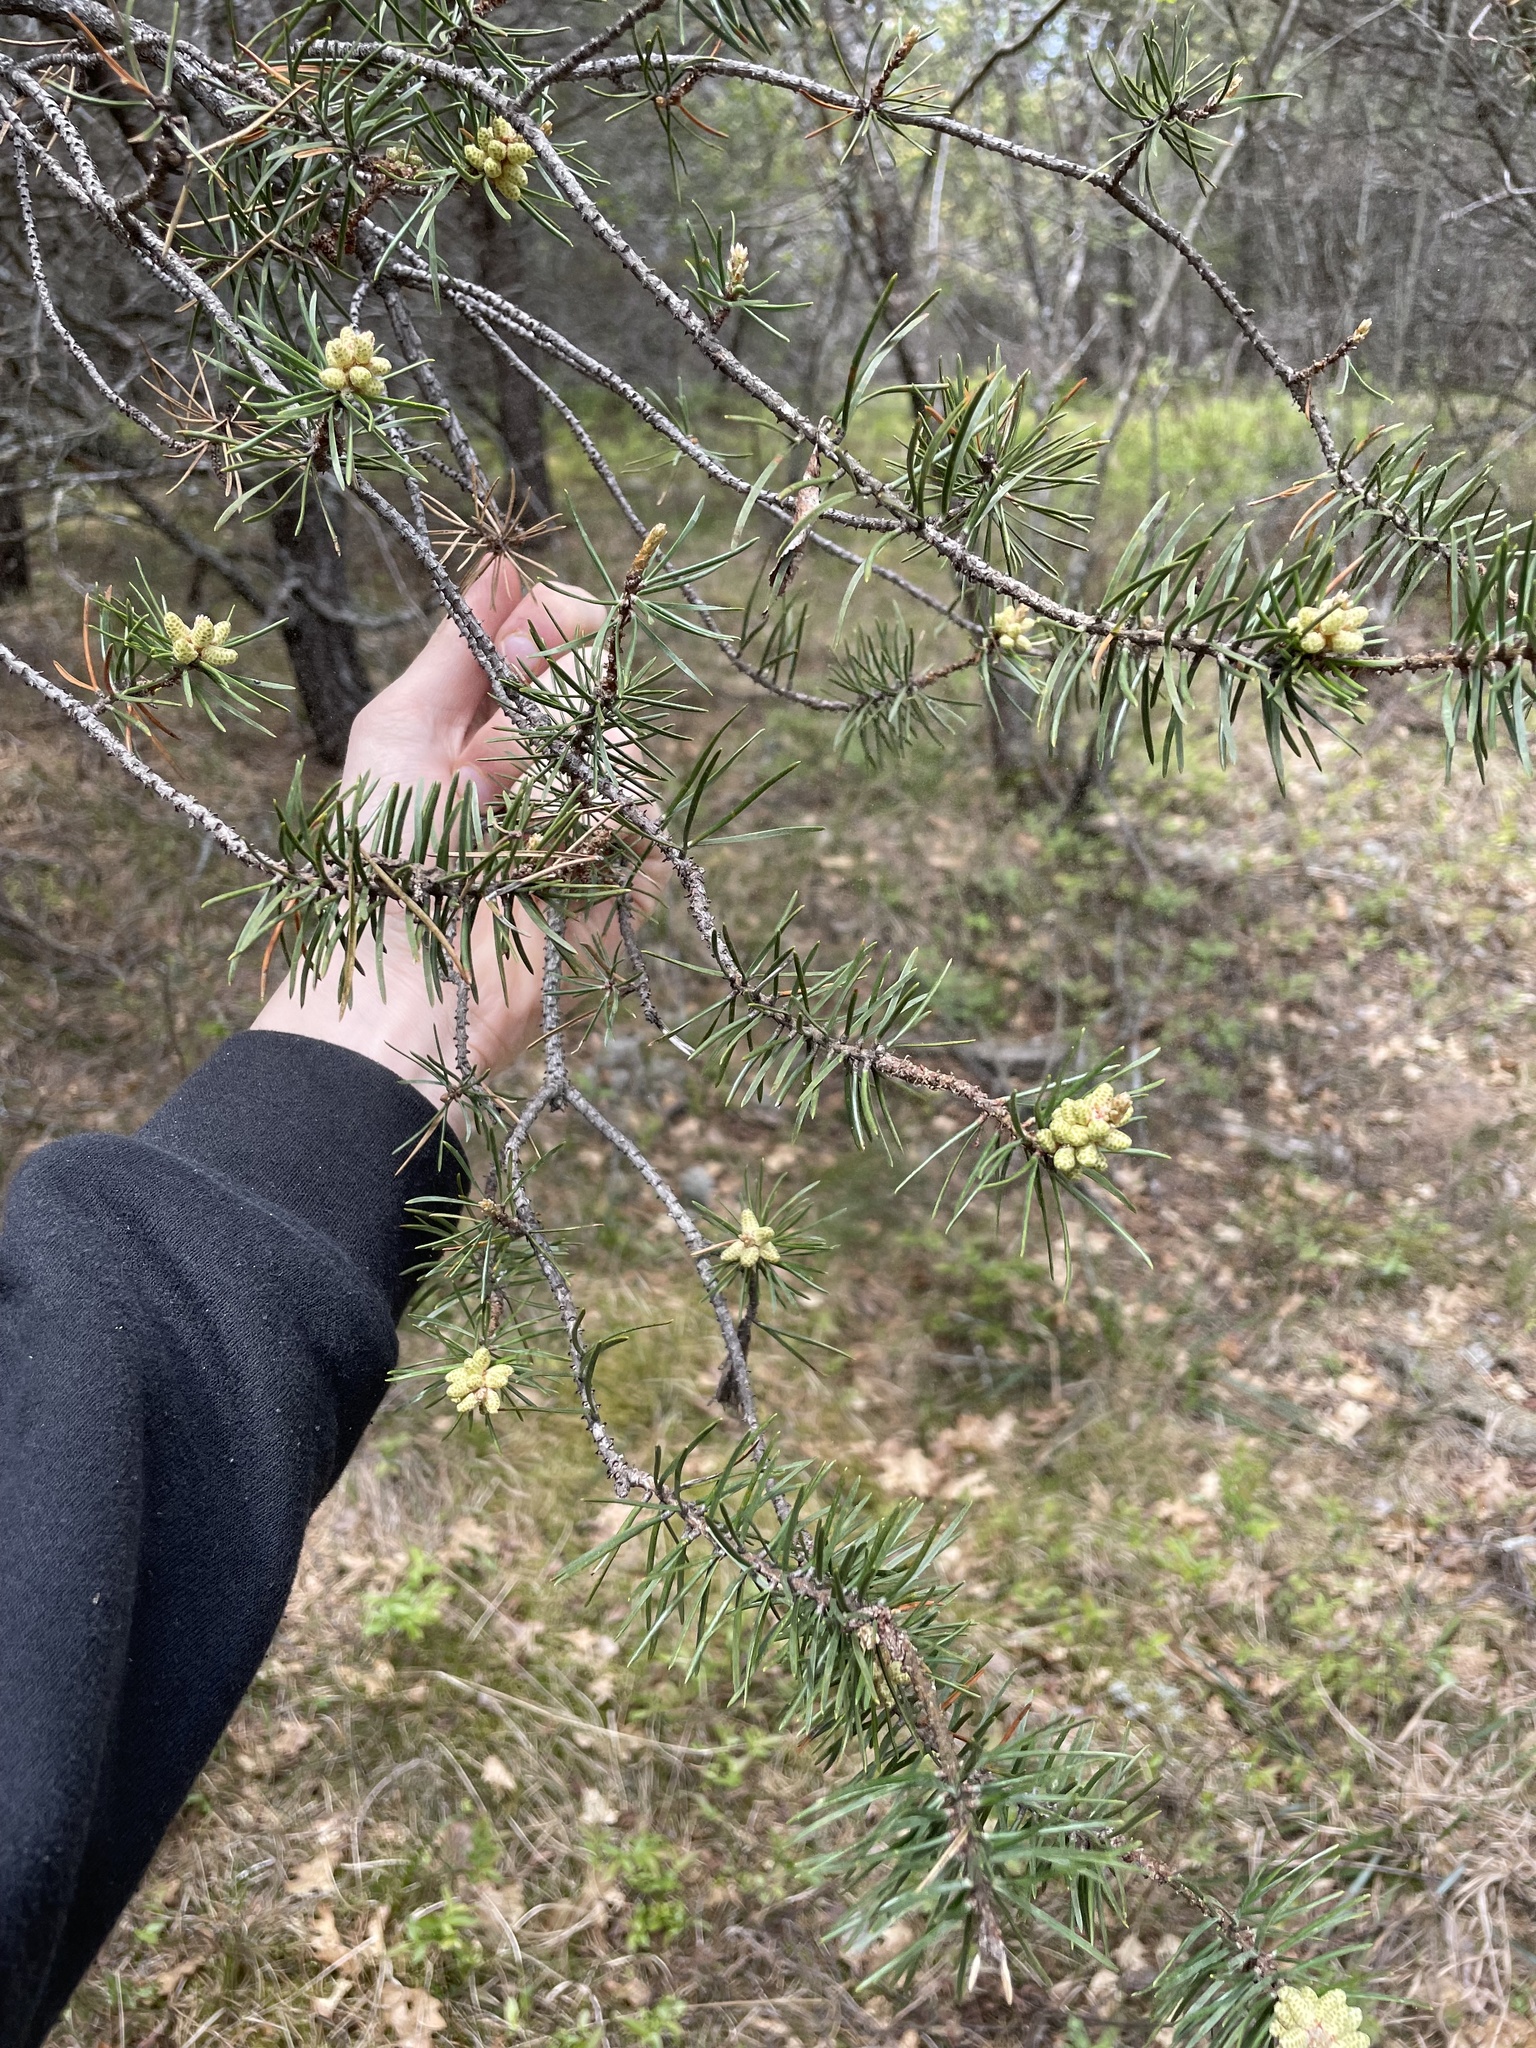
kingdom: Plantae
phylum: Tracheophyta
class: Pinopsida
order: Pinales
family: Pinaceae
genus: Pinus
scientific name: Pinus banksiana
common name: Jack pine
